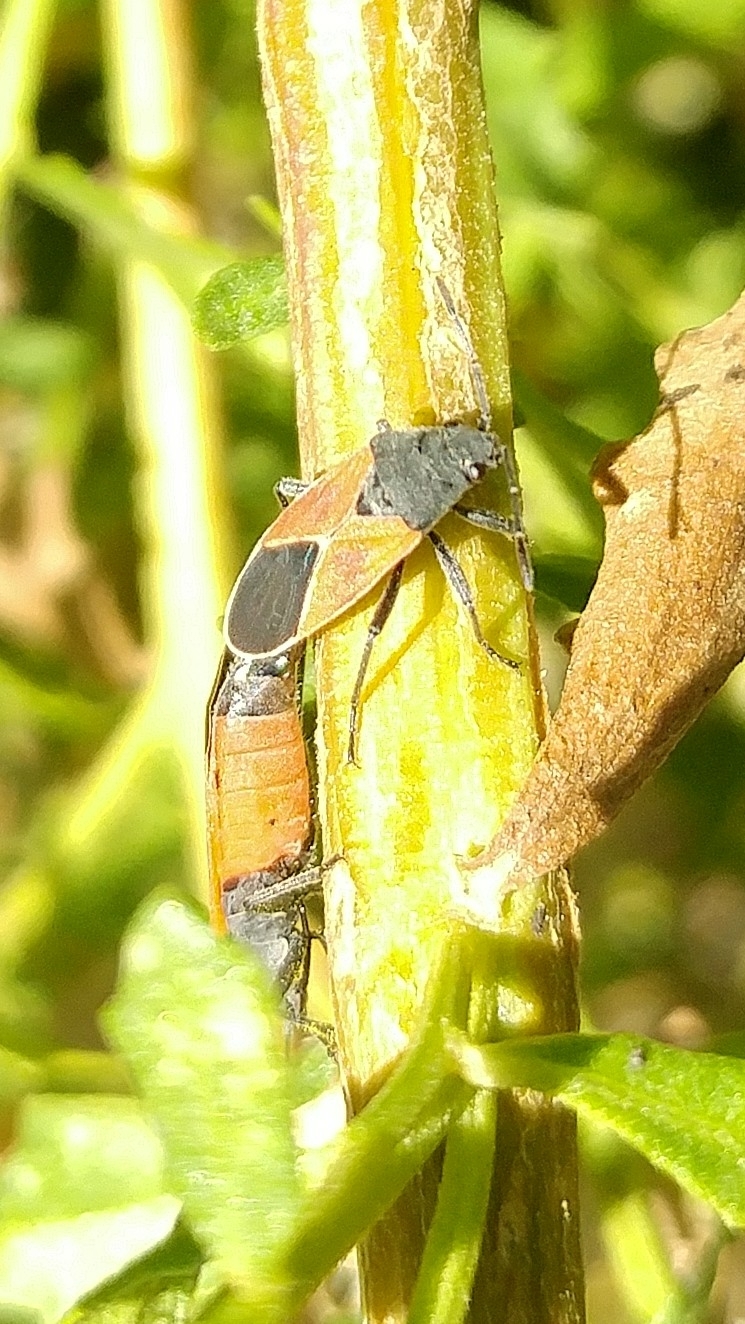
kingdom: Animalia
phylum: Arthropoda
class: Insecta
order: Hemiptera
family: Lygaeidae
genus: Melanopleurus
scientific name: Melanopleurus fuscosus
